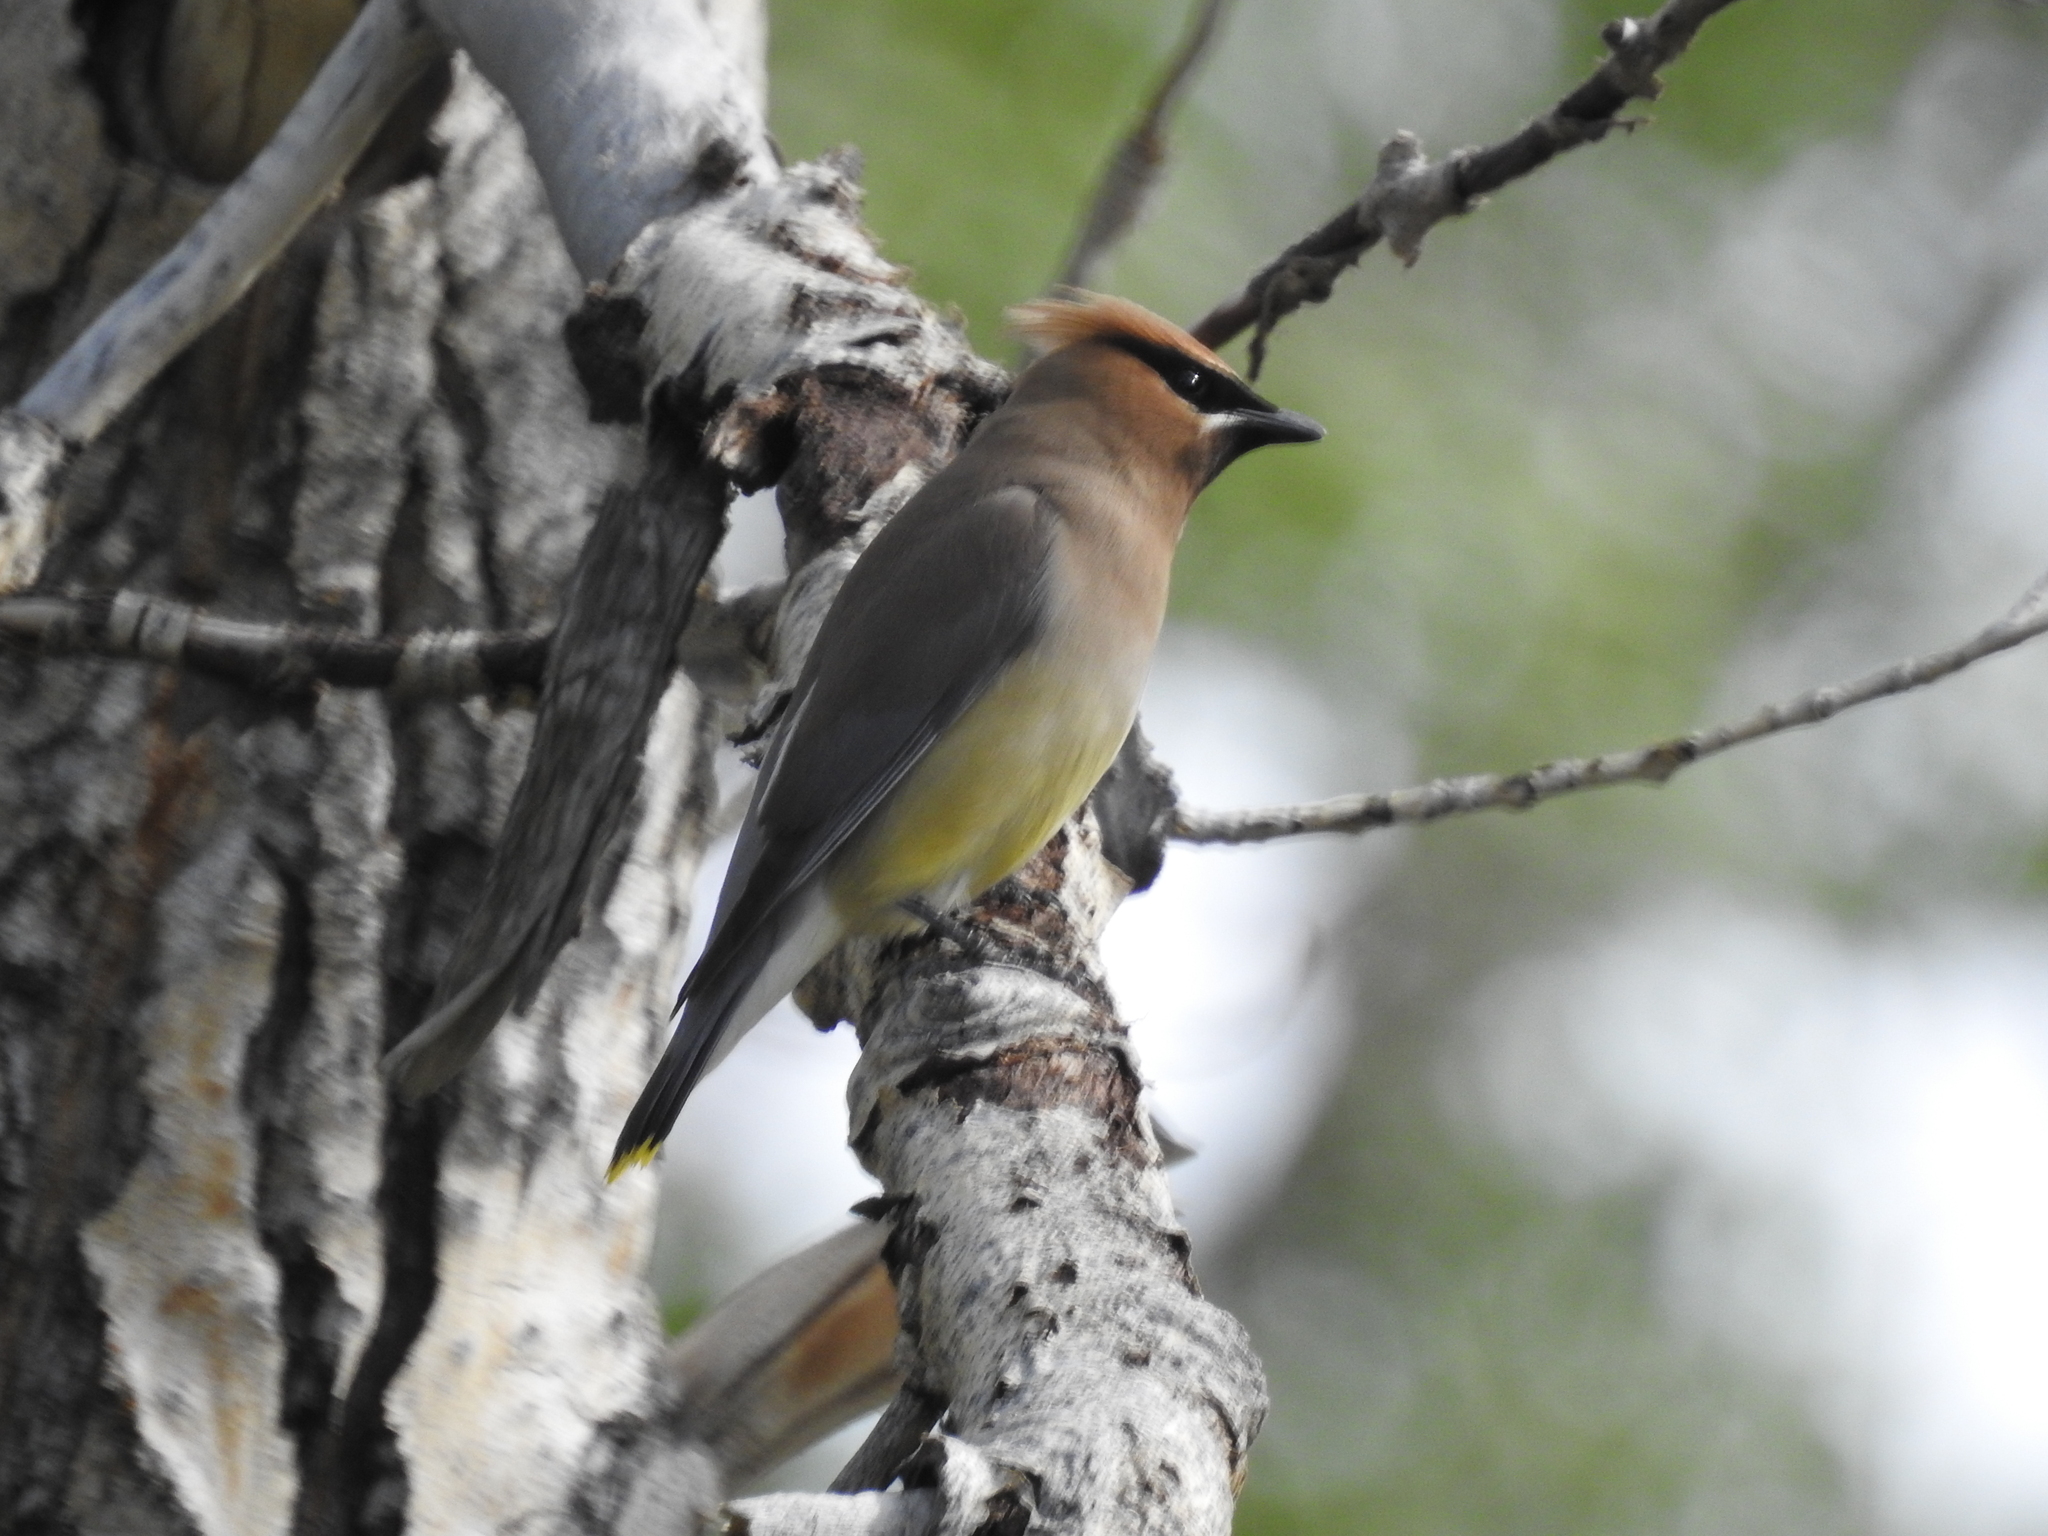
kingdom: Animalia
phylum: Chordata
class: Aves
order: Passeriformes
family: Bombycillidae
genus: Bombycilla
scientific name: Bombycilla cedrorum
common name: Cedar waxwing
